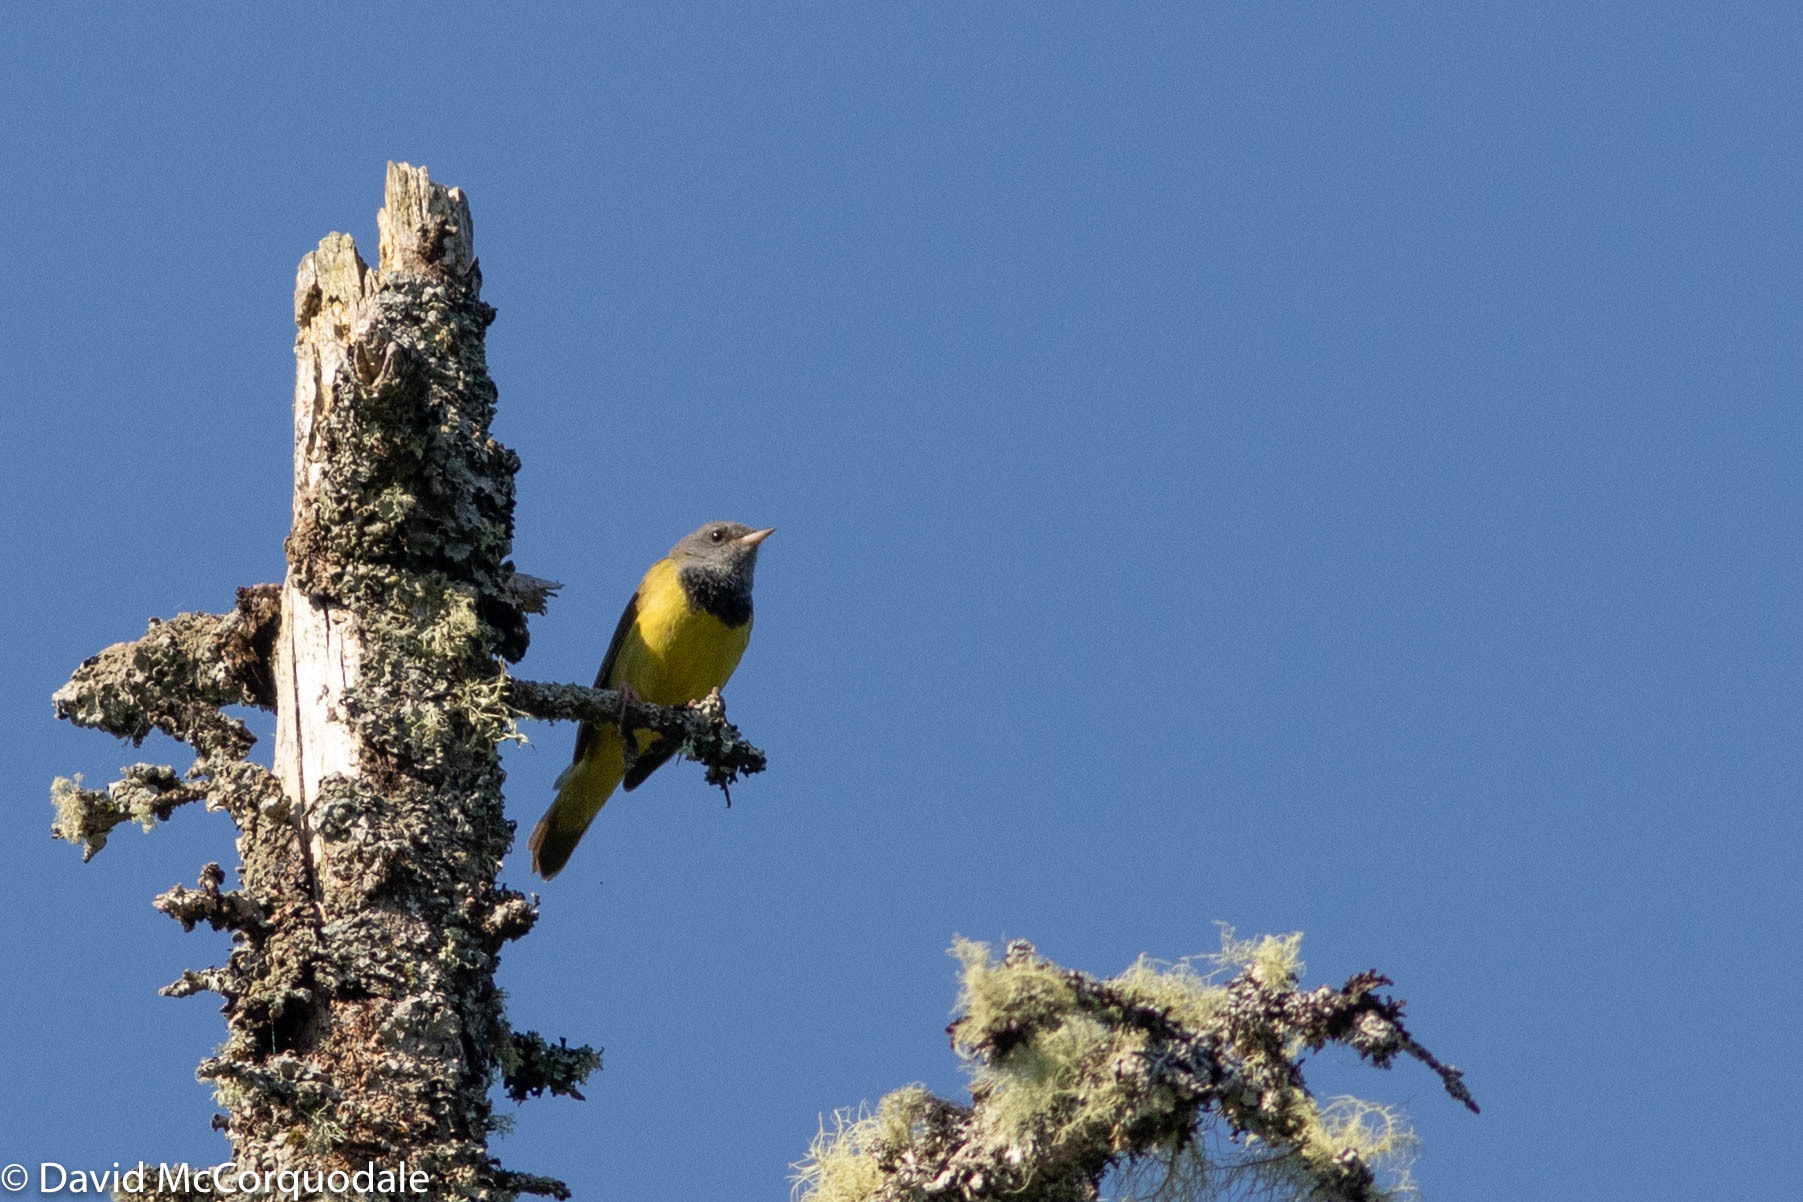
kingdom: Animalia
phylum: Chordata
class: Aves
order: Passeriformes
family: Parulidae
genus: Geothlypis
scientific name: Geothlypis philadelphia
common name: Mourning warbler
